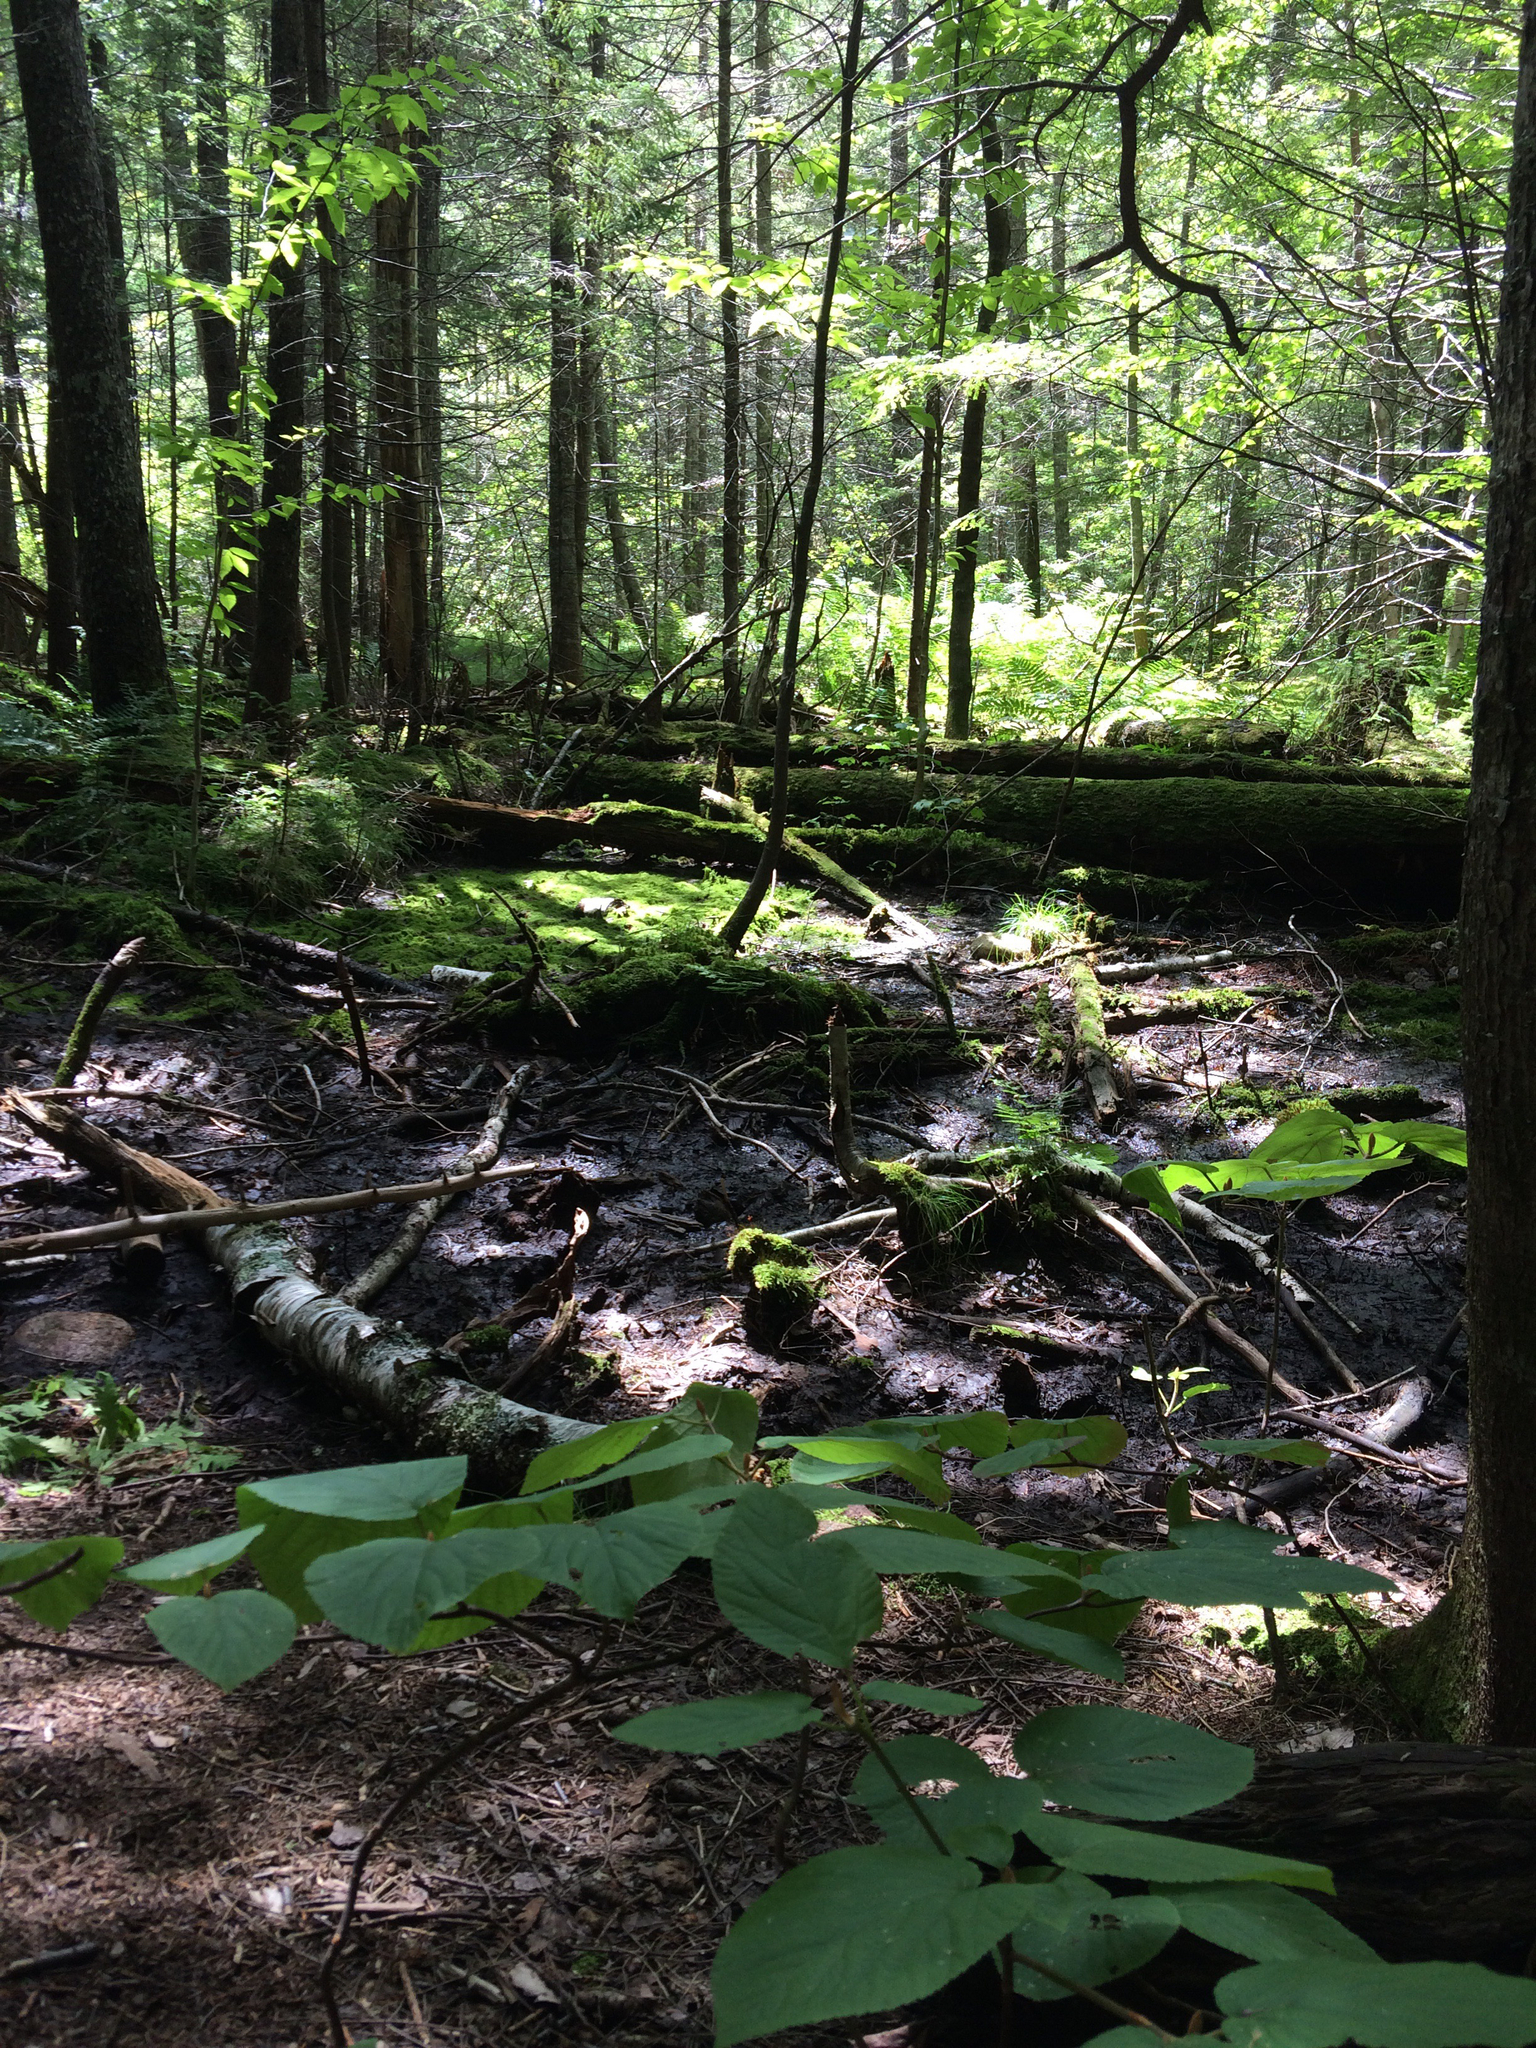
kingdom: Plantae
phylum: Tracheophyta
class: Magnoliopsida
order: Dipsacales
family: Viburnaceae
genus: Viburnum
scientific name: Viburnum lantanoides
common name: Hobblebush
